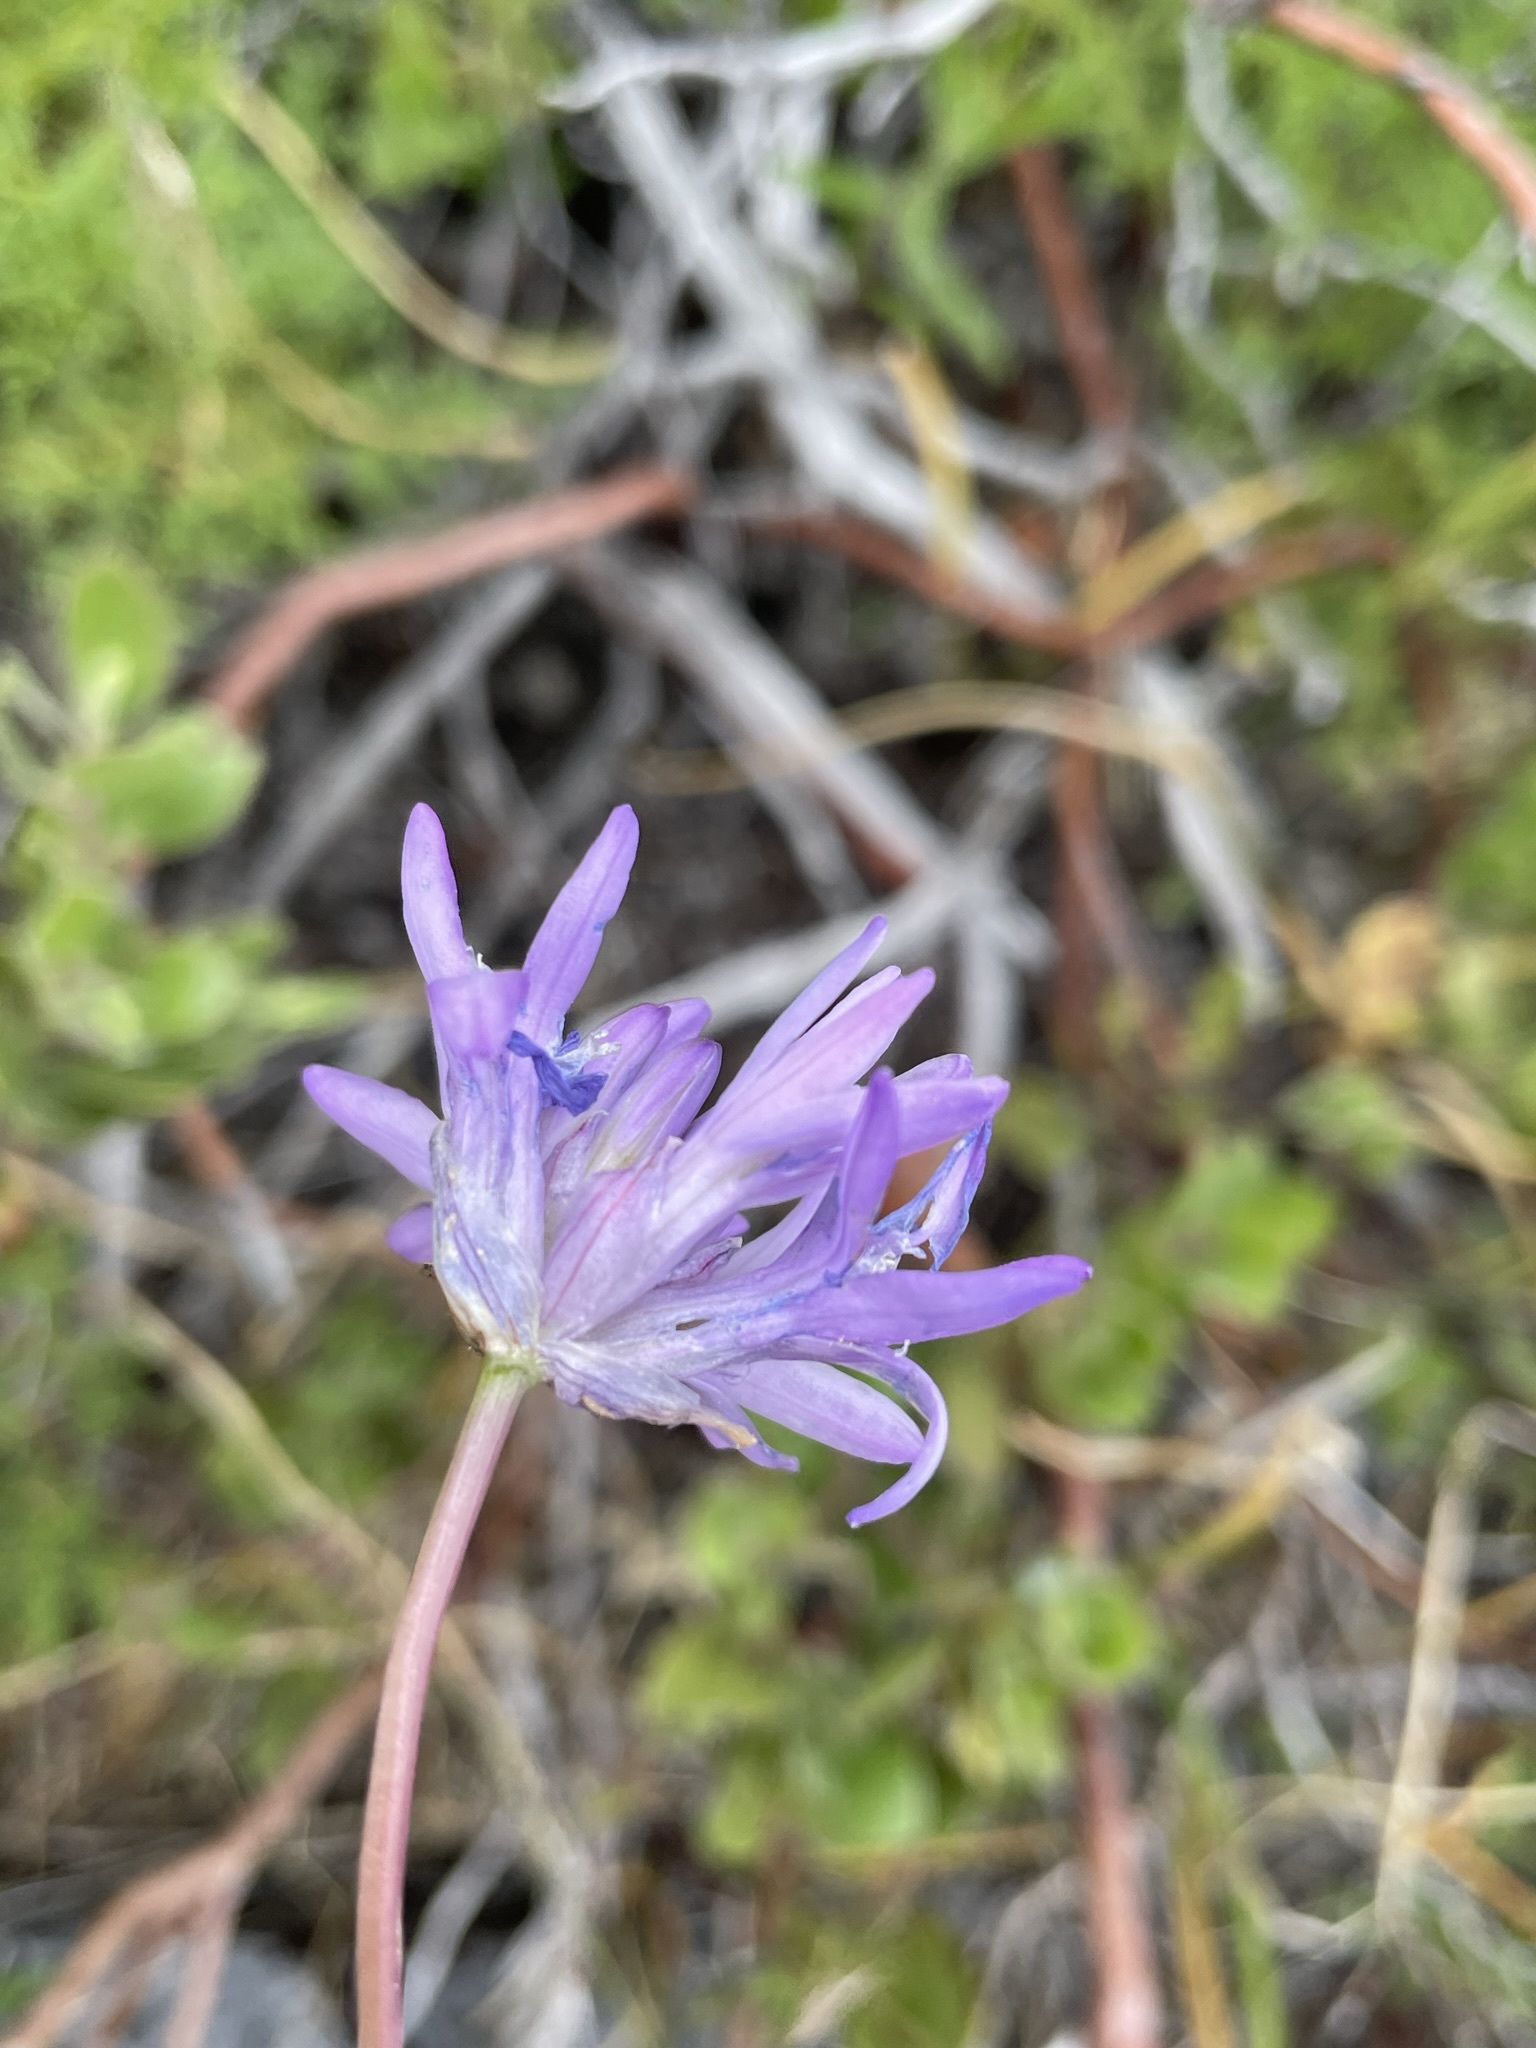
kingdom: Plantae
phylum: Tracheophyta
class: Liliopsida
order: Asparagales
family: Asparagaceae
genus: Dichelostemma
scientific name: Dichelostemma congestum
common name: Fork-tooth ookow
